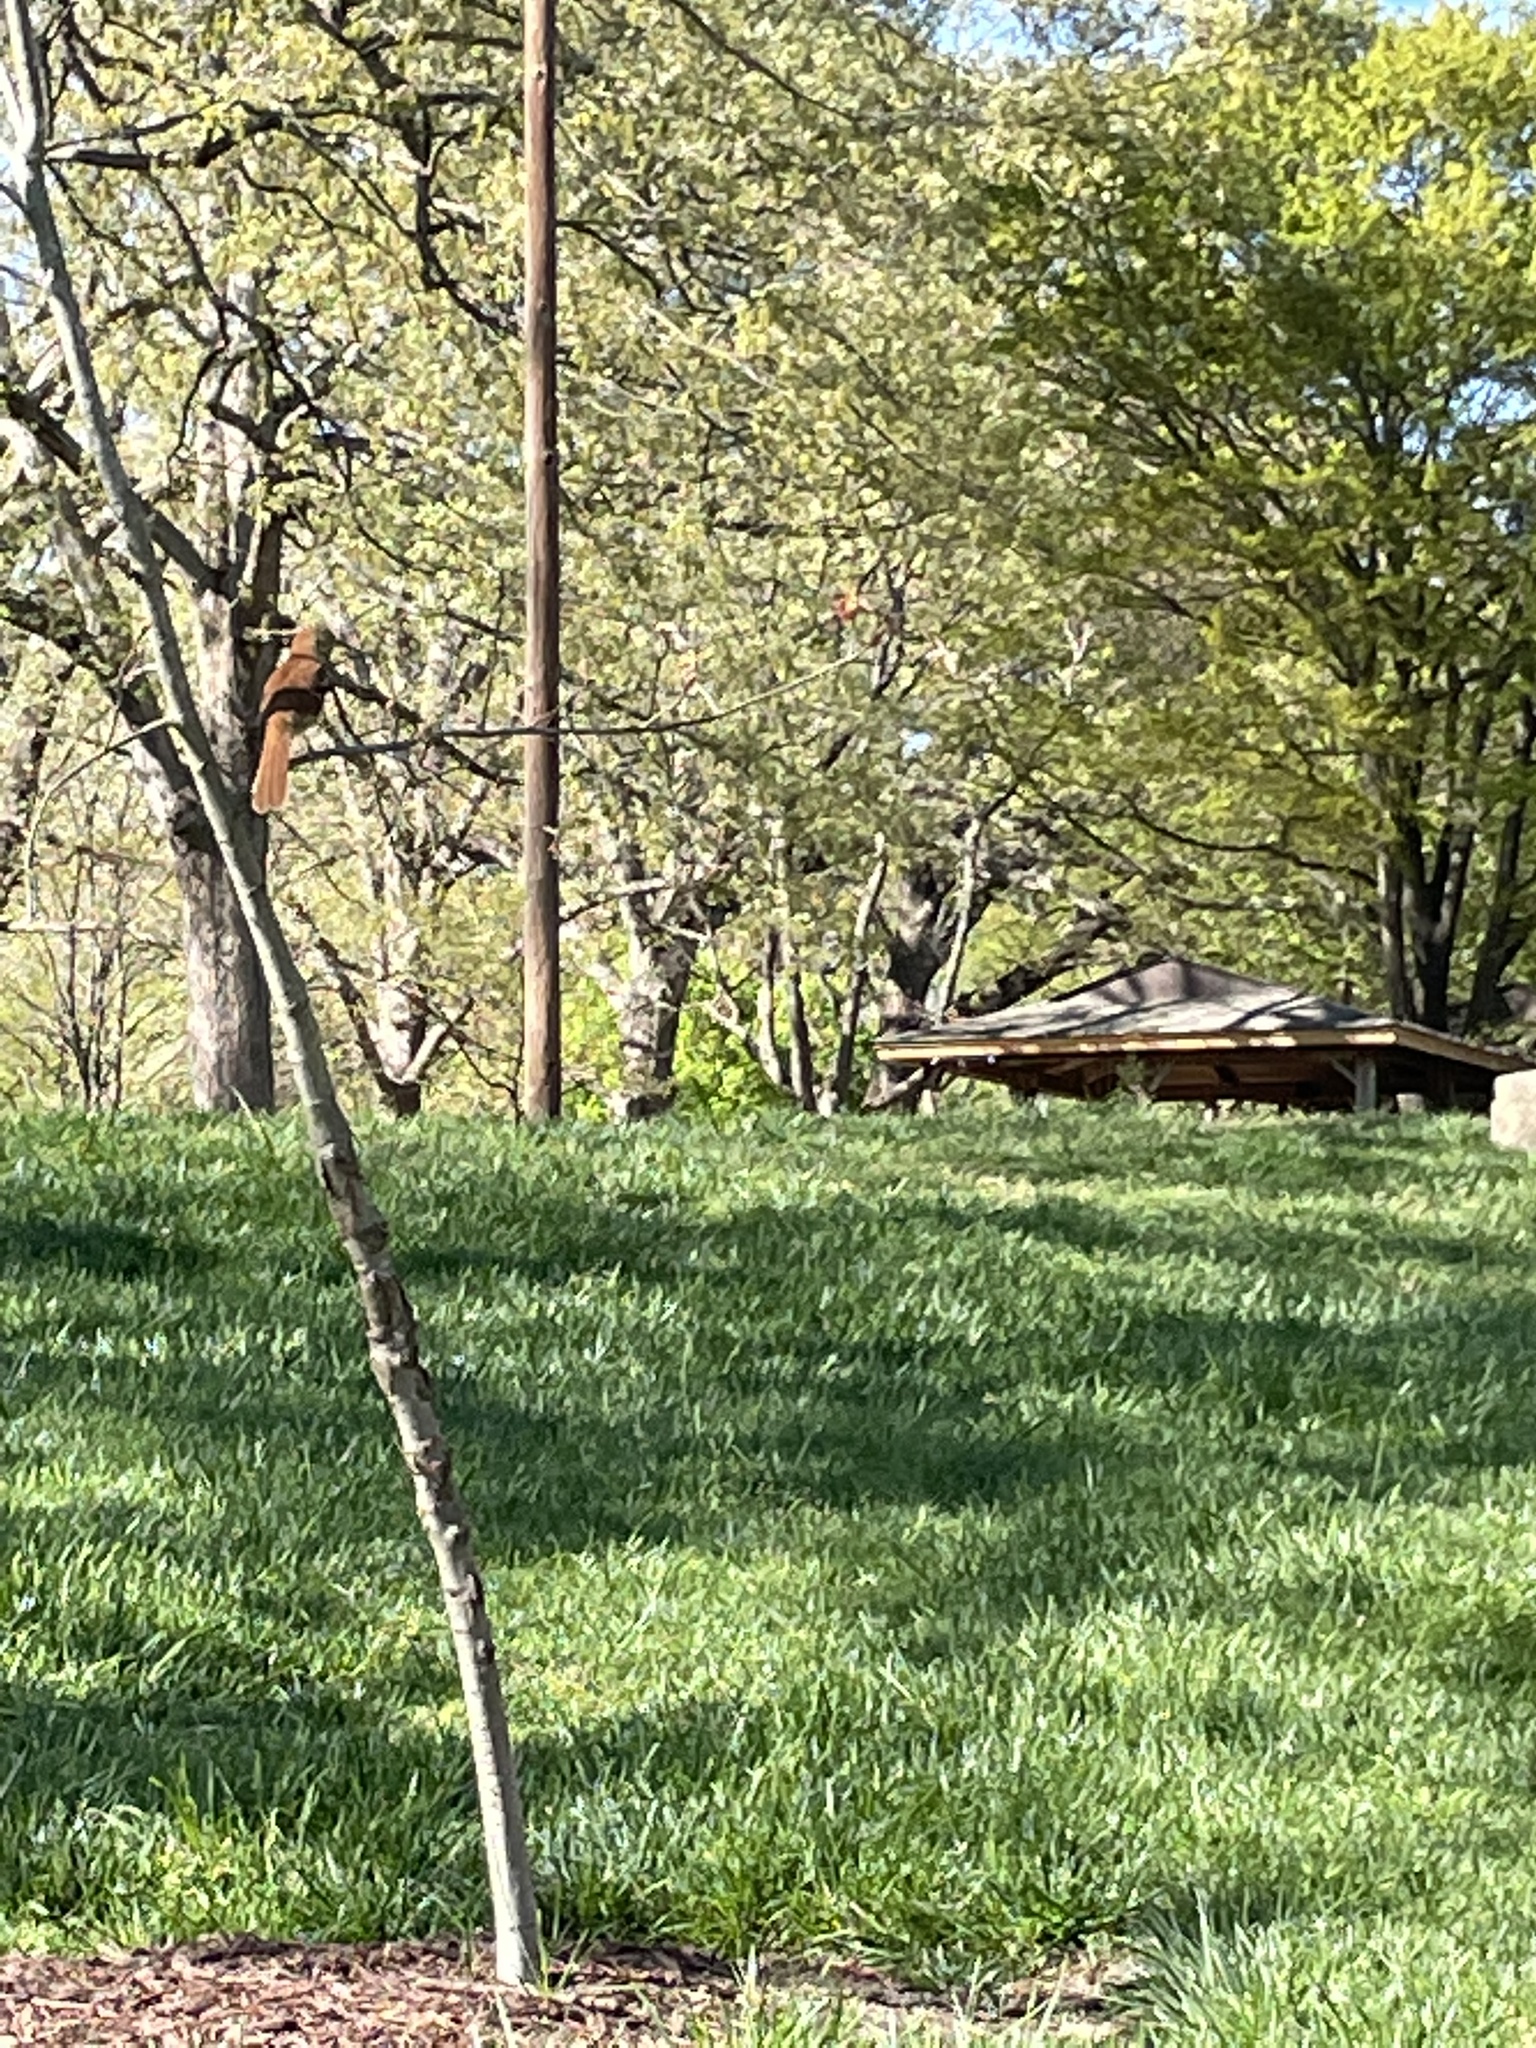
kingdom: Animalia
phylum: Chordata
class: Aves
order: Passeriformes
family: Mimidae
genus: Toxostoma
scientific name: Toxostoma rufum
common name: Brown thrasher
